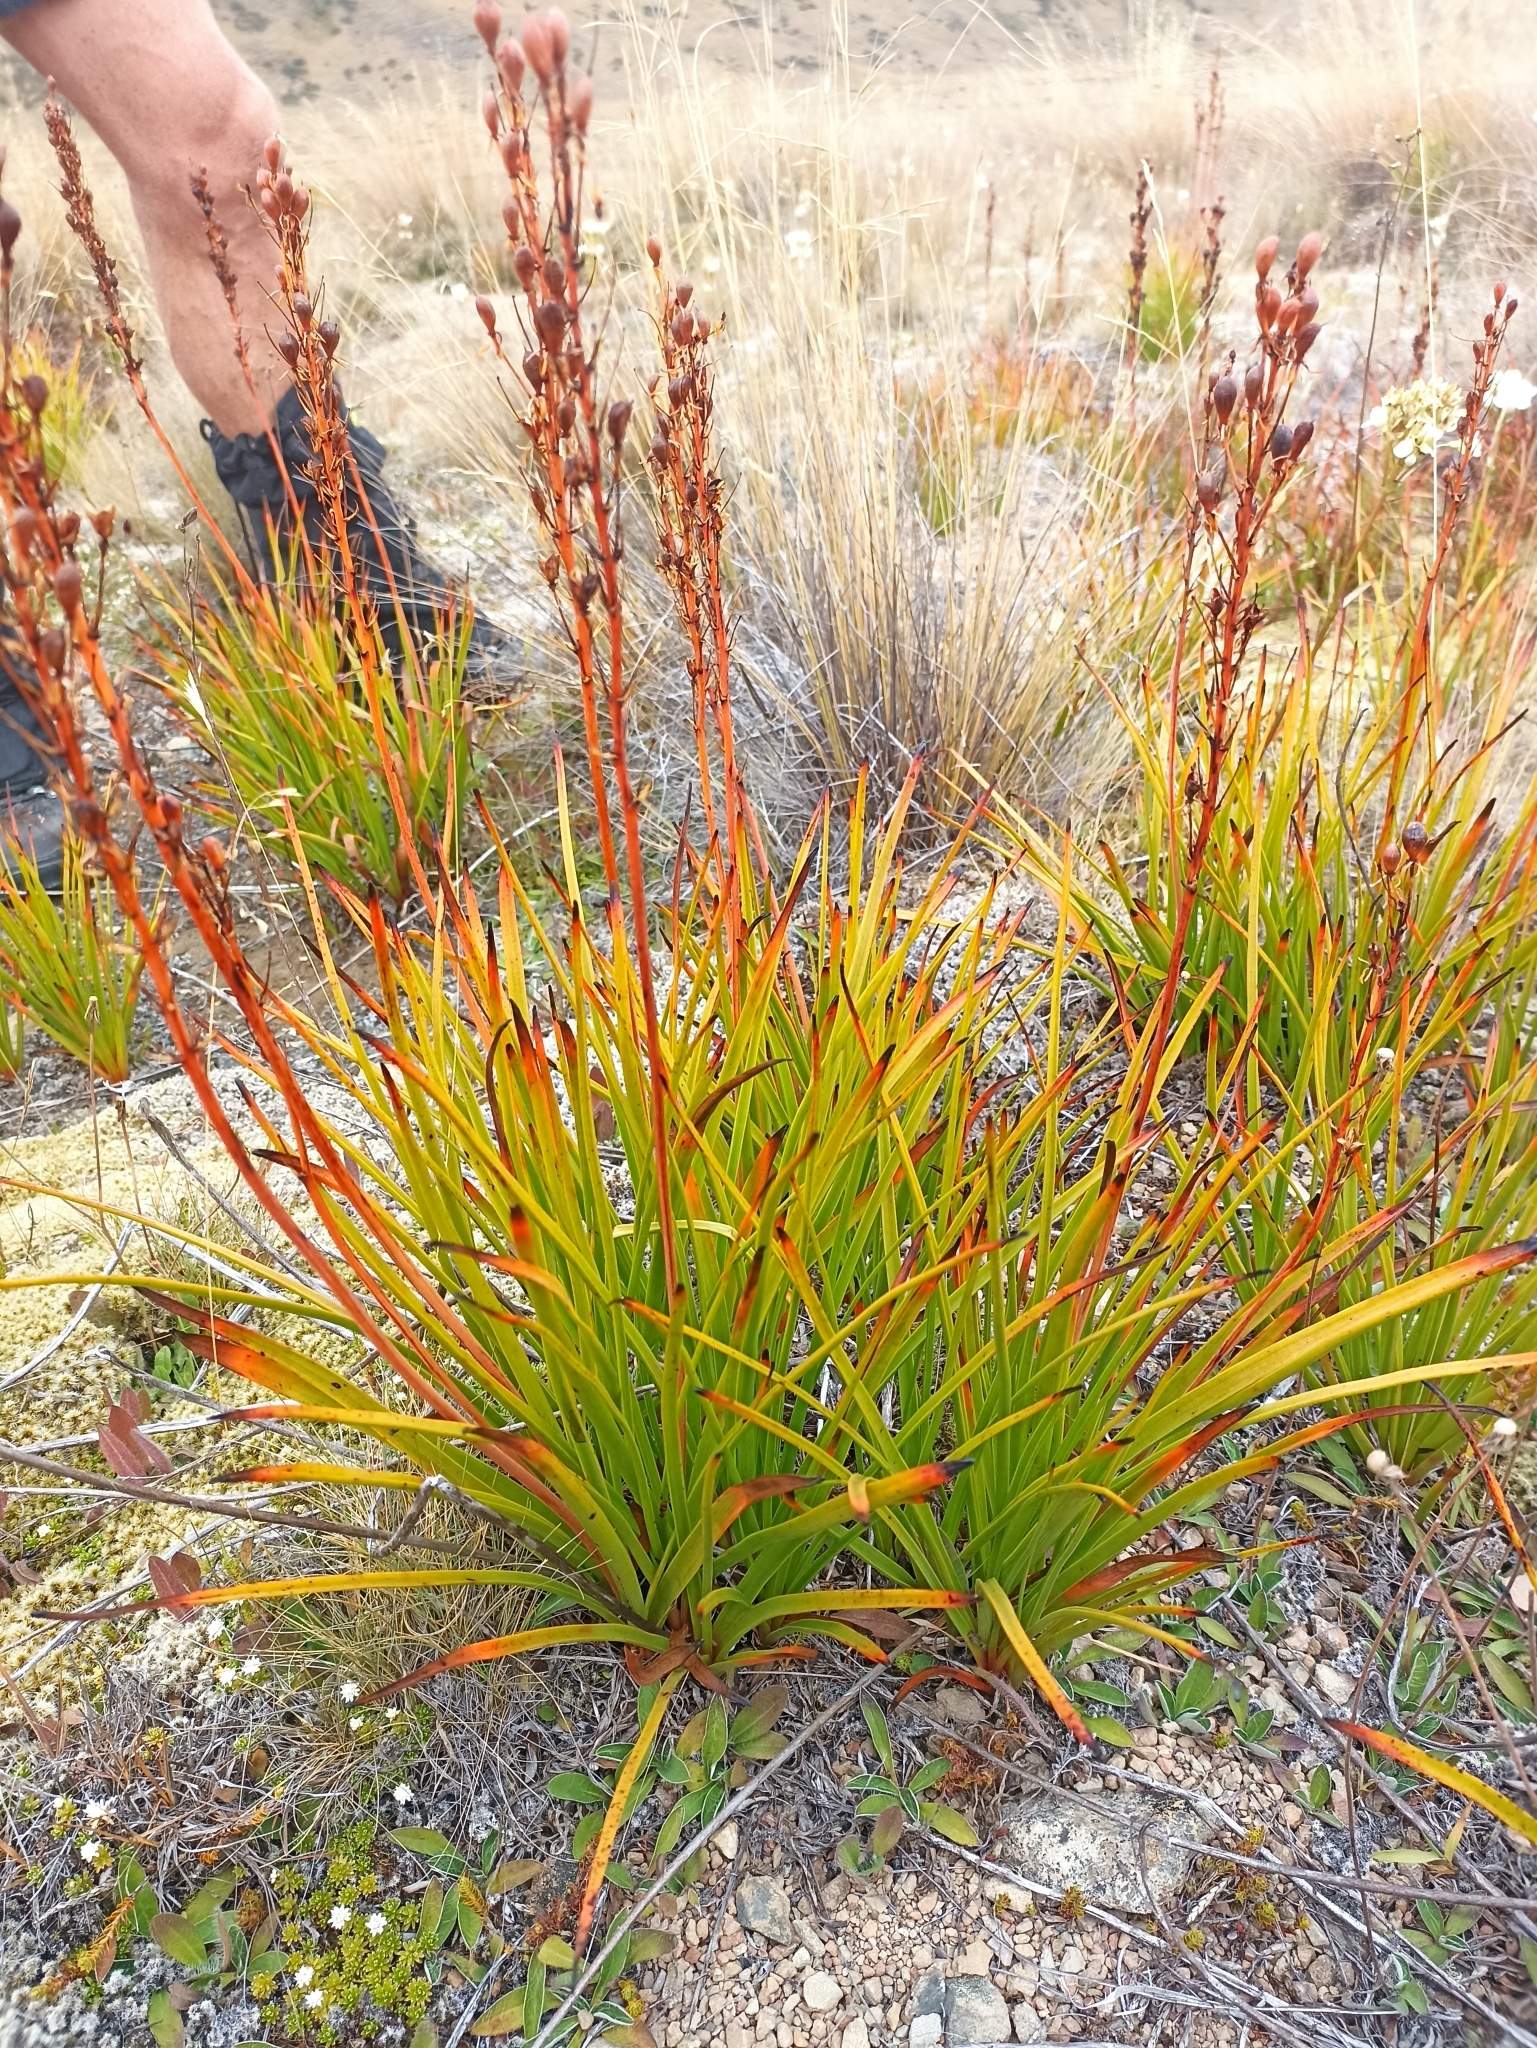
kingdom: Plantae
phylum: Tracheophyta
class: Liliopsida
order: Asparagales
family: Asphodelaceae
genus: Bulbinella
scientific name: Bulbinella angustifolia
